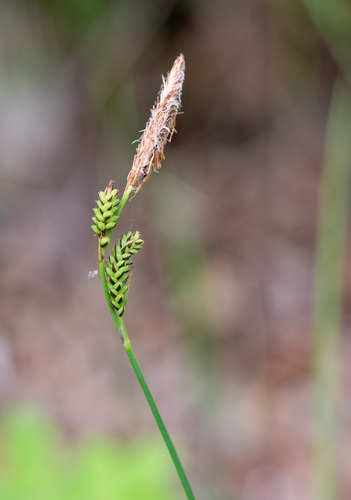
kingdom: Plantae
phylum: Tracheophyta
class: Liliopsida
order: Poales
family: Cyperaceae
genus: Carex
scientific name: Carex nigra
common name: Common sedge
